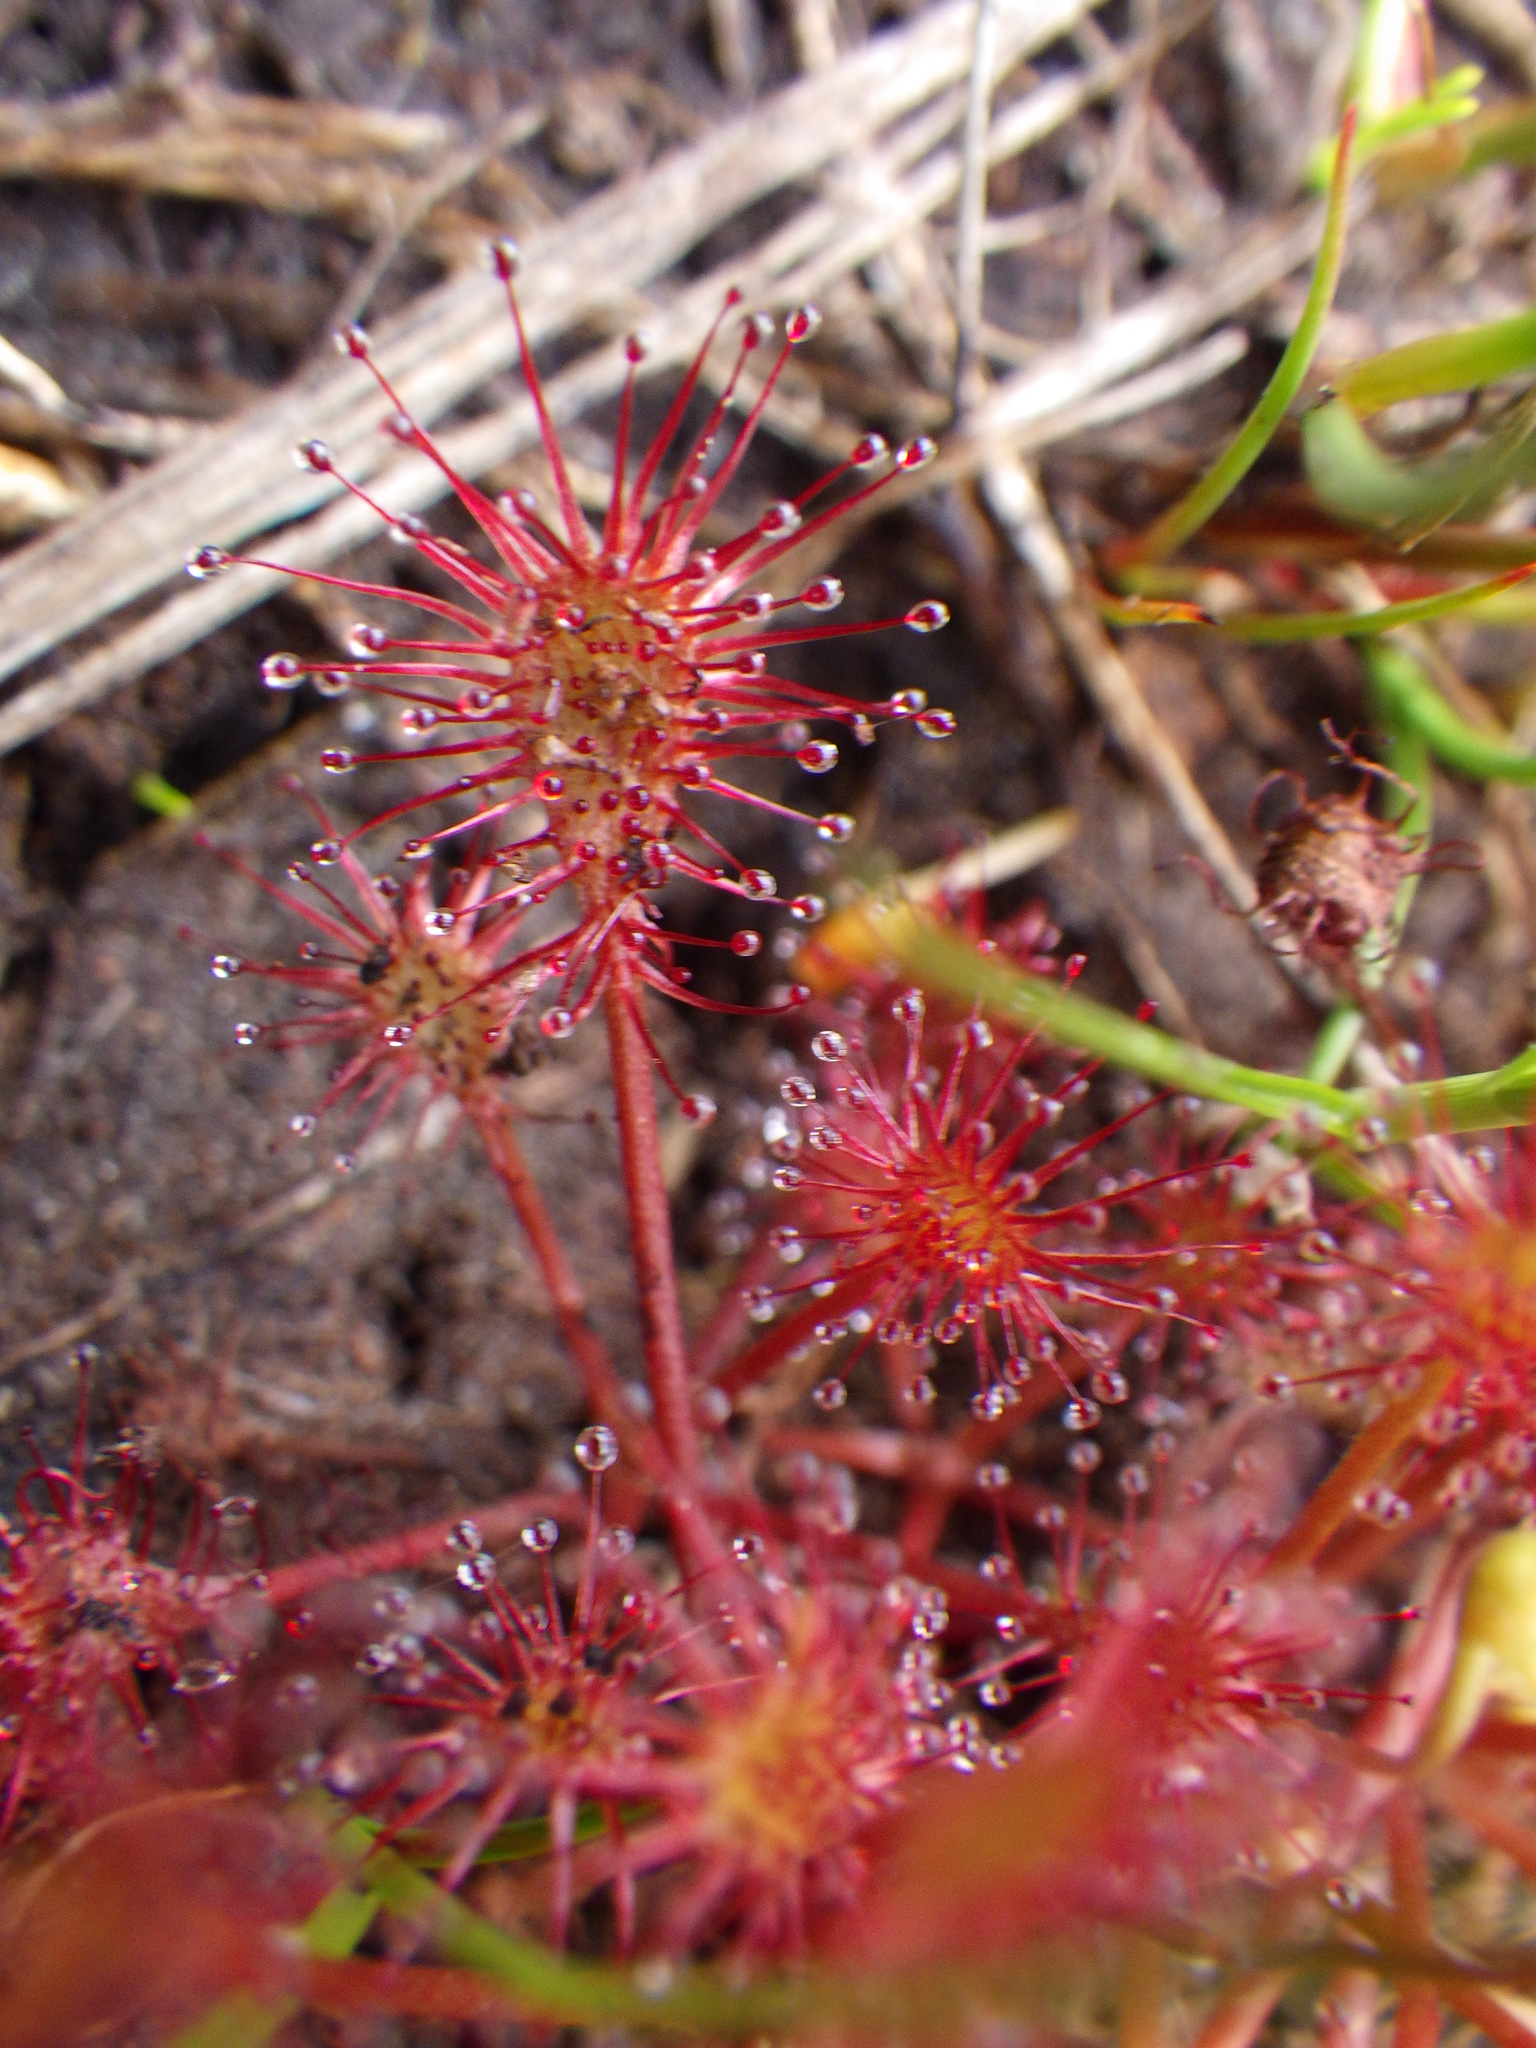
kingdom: Plantae
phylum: Tracheophyta
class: Magnoliopsida
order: Caryophyllales
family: Droseraceae
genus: Drosera
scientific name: Drosera intermedia
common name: Oblong-leaved sundew
